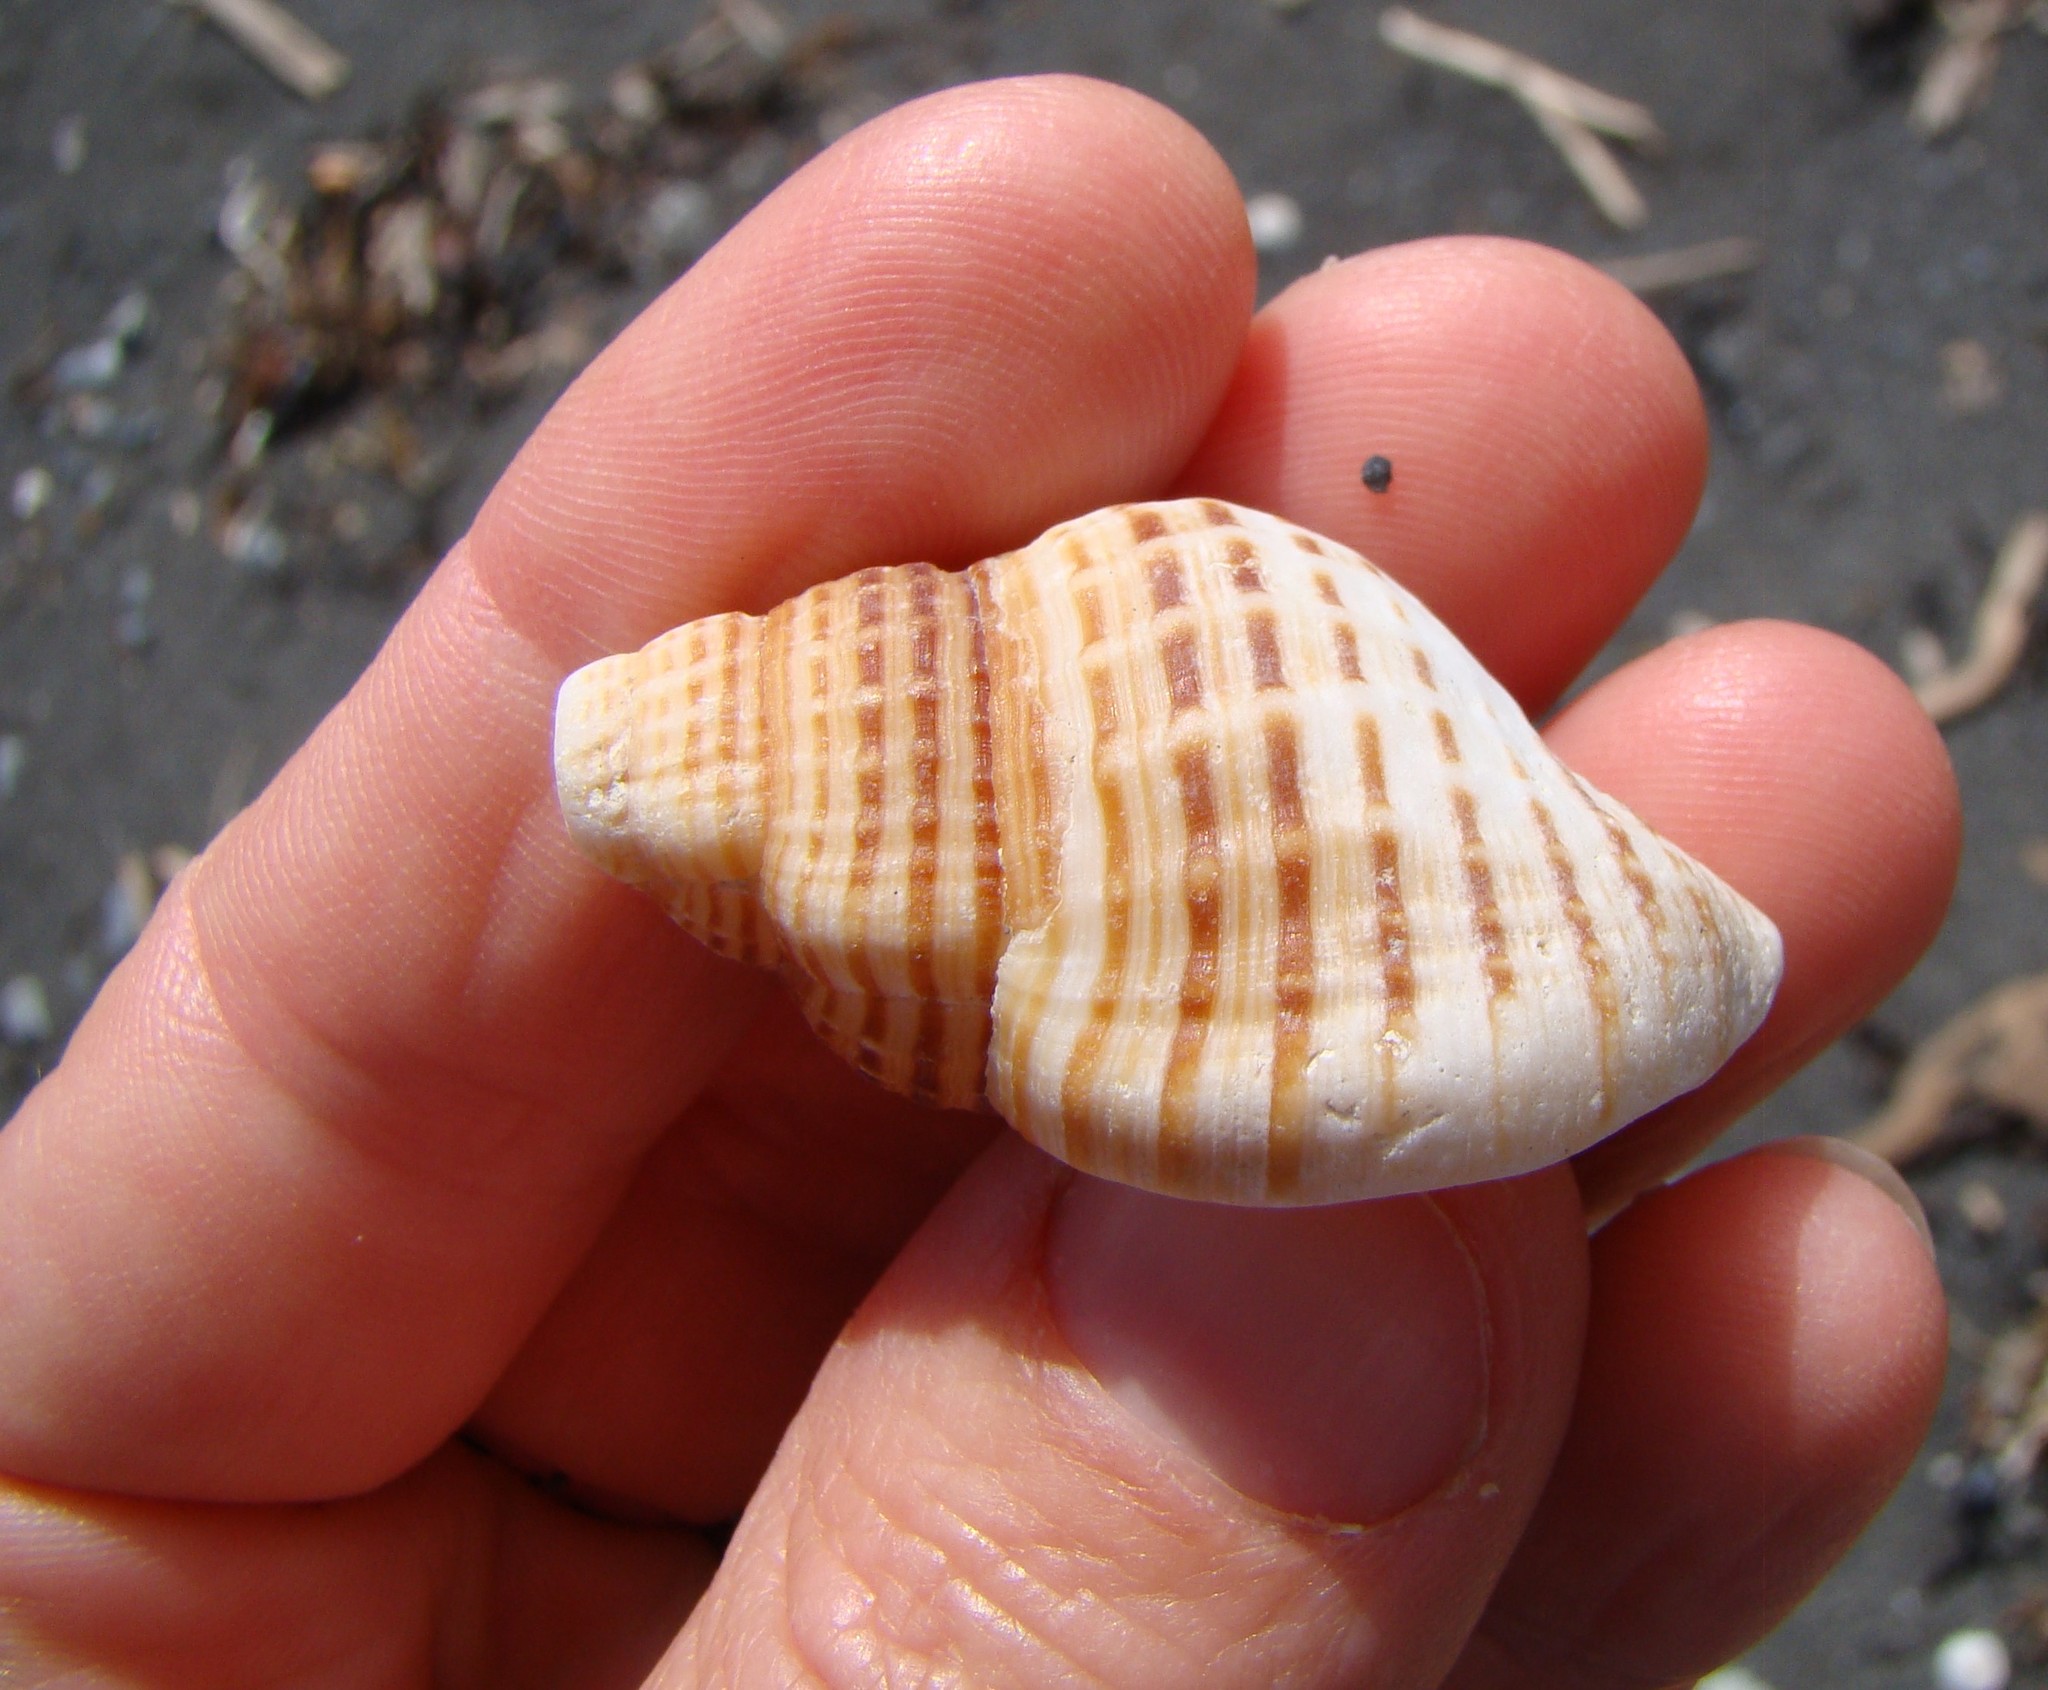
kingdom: Animalia
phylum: Mollusca
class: Gastropoda
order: Littorinimorpha
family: Cymatiidae
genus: Argobuccinum
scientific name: Argobuccinum pustulosum
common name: Pustular triton
